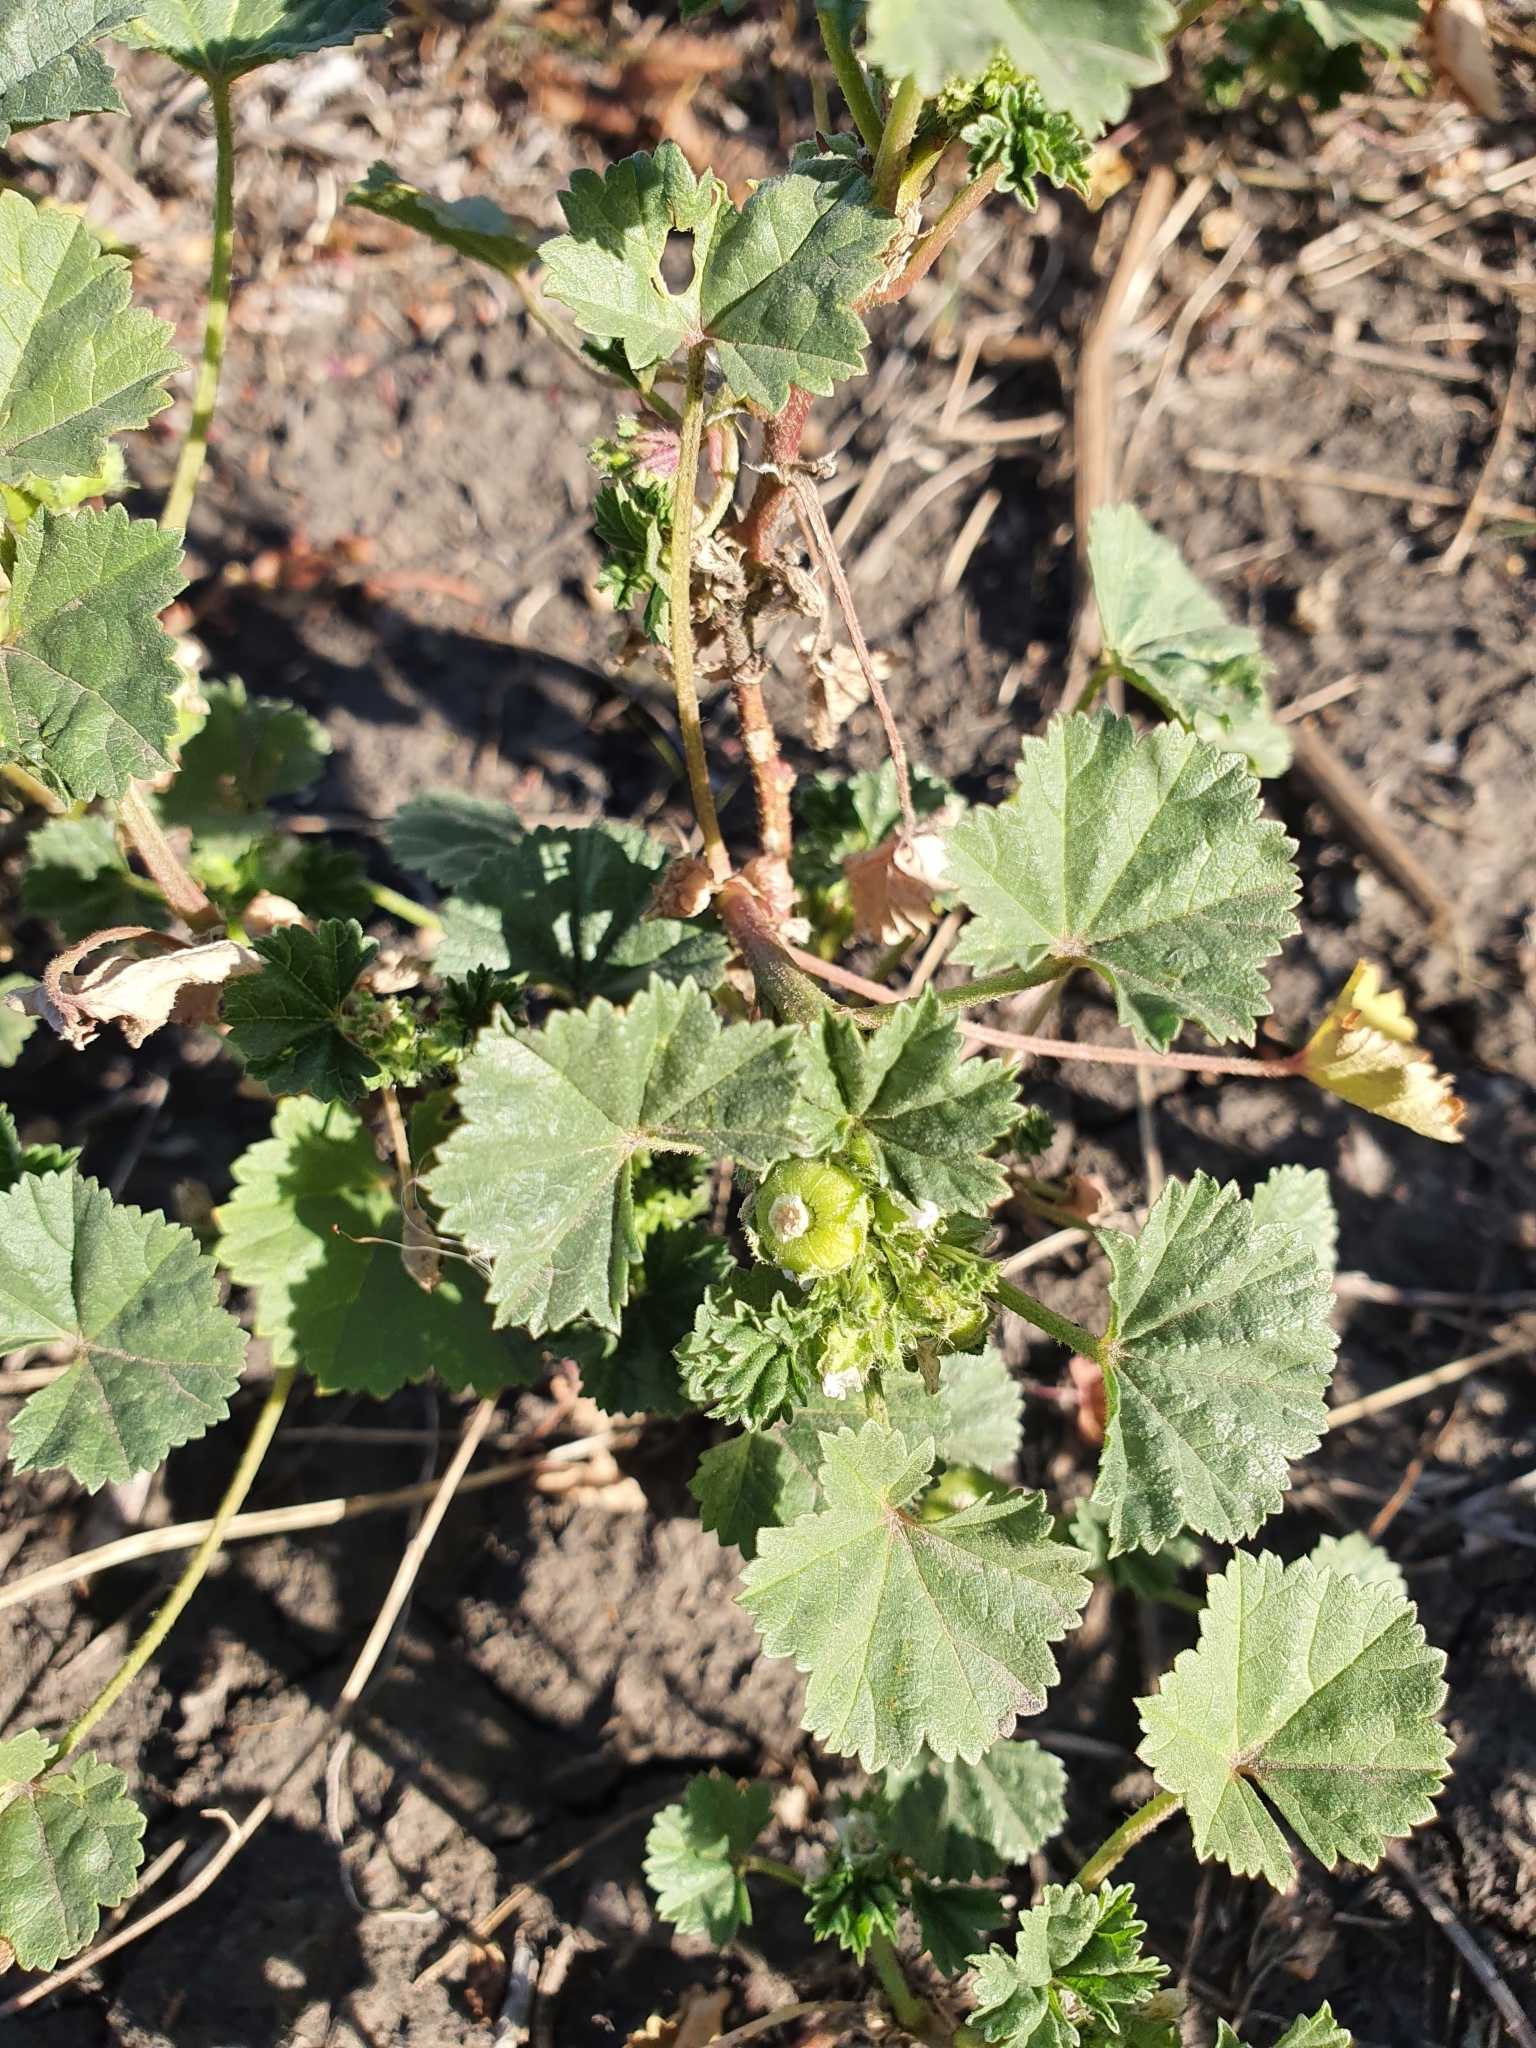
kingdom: Plantae
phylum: Tracheophyta
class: Magnoliopsida
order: Malvales
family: Malvaceae
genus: Malva
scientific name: Malva pusilla
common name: Small mallow
